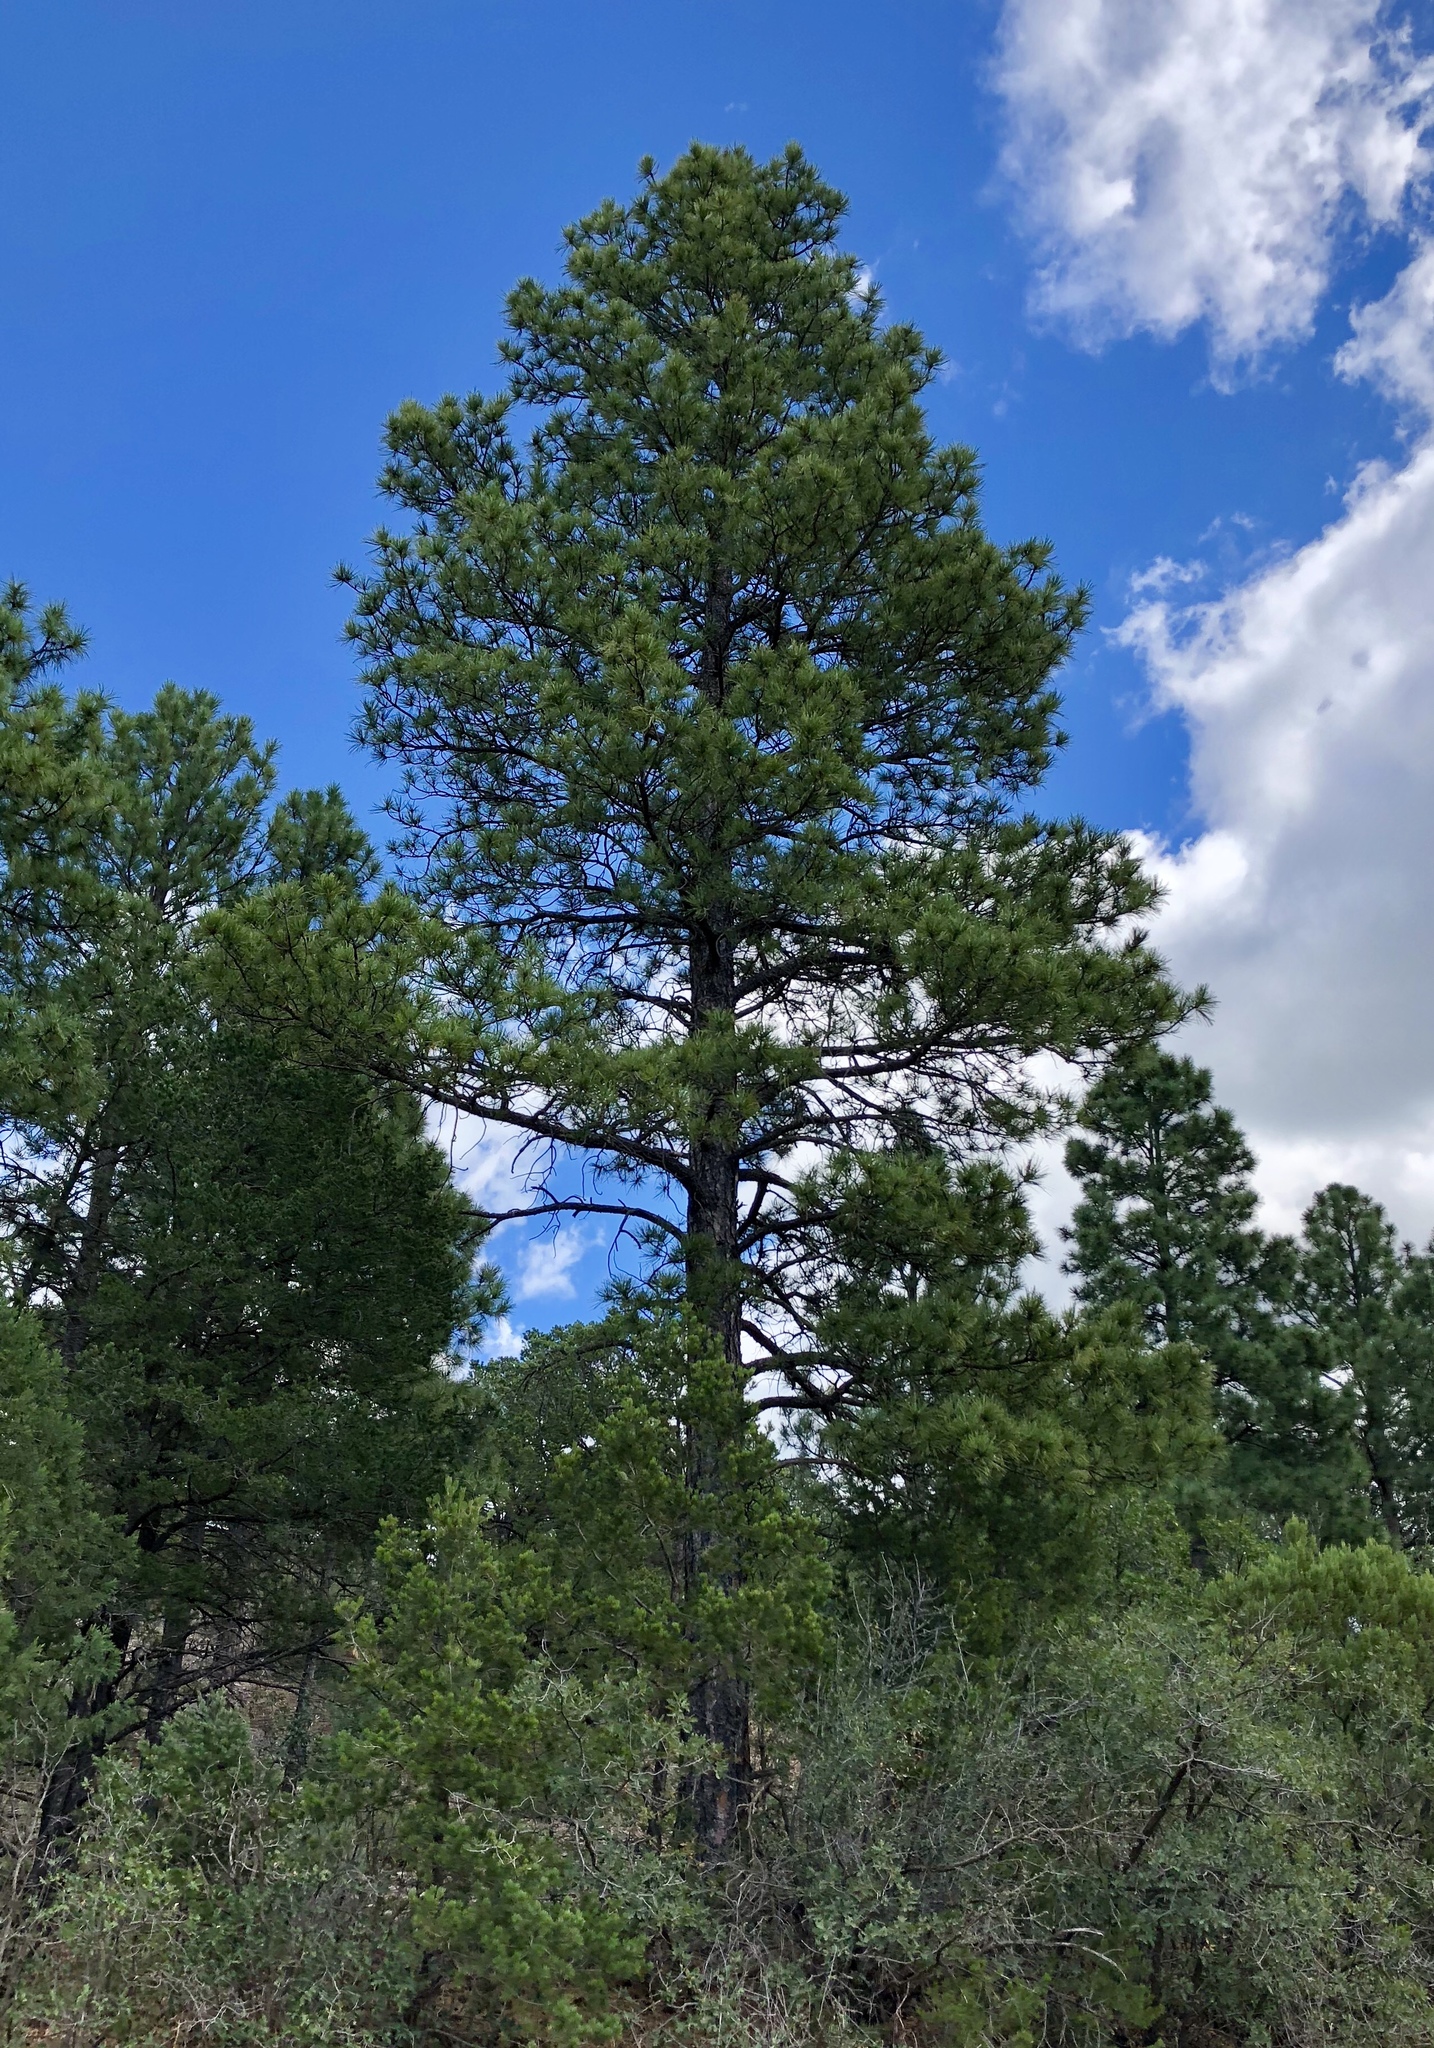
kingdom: Plantae
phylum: Tracheophyta
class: Pinopsida
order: Pinales
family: Pinaceae
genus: Pinus
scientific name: Pinus ponderosa
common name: Western yellow-pine
